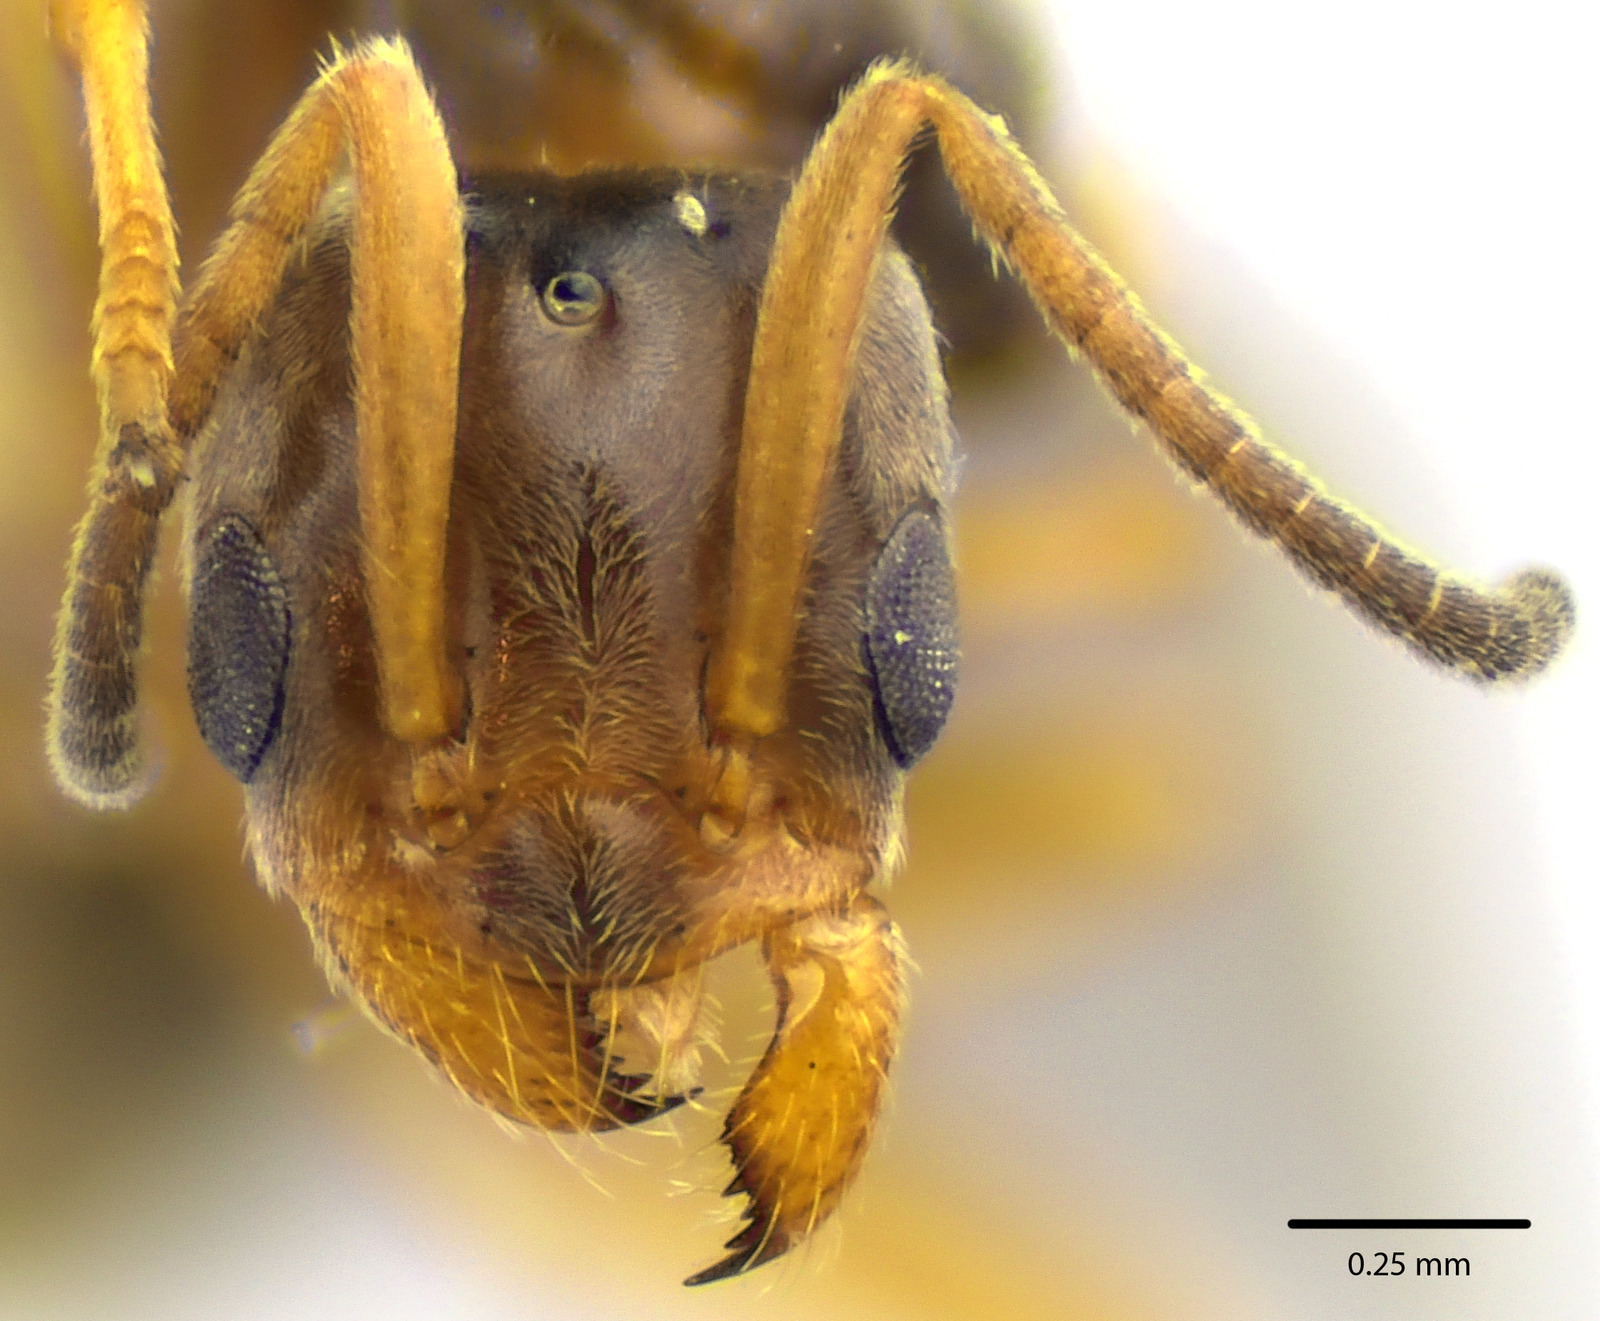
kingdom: Animalia
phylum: Arthropoda
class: Insecta
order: Hymenoptera
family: Formicidae
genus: Forelius
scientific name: Forelius pruinosus
